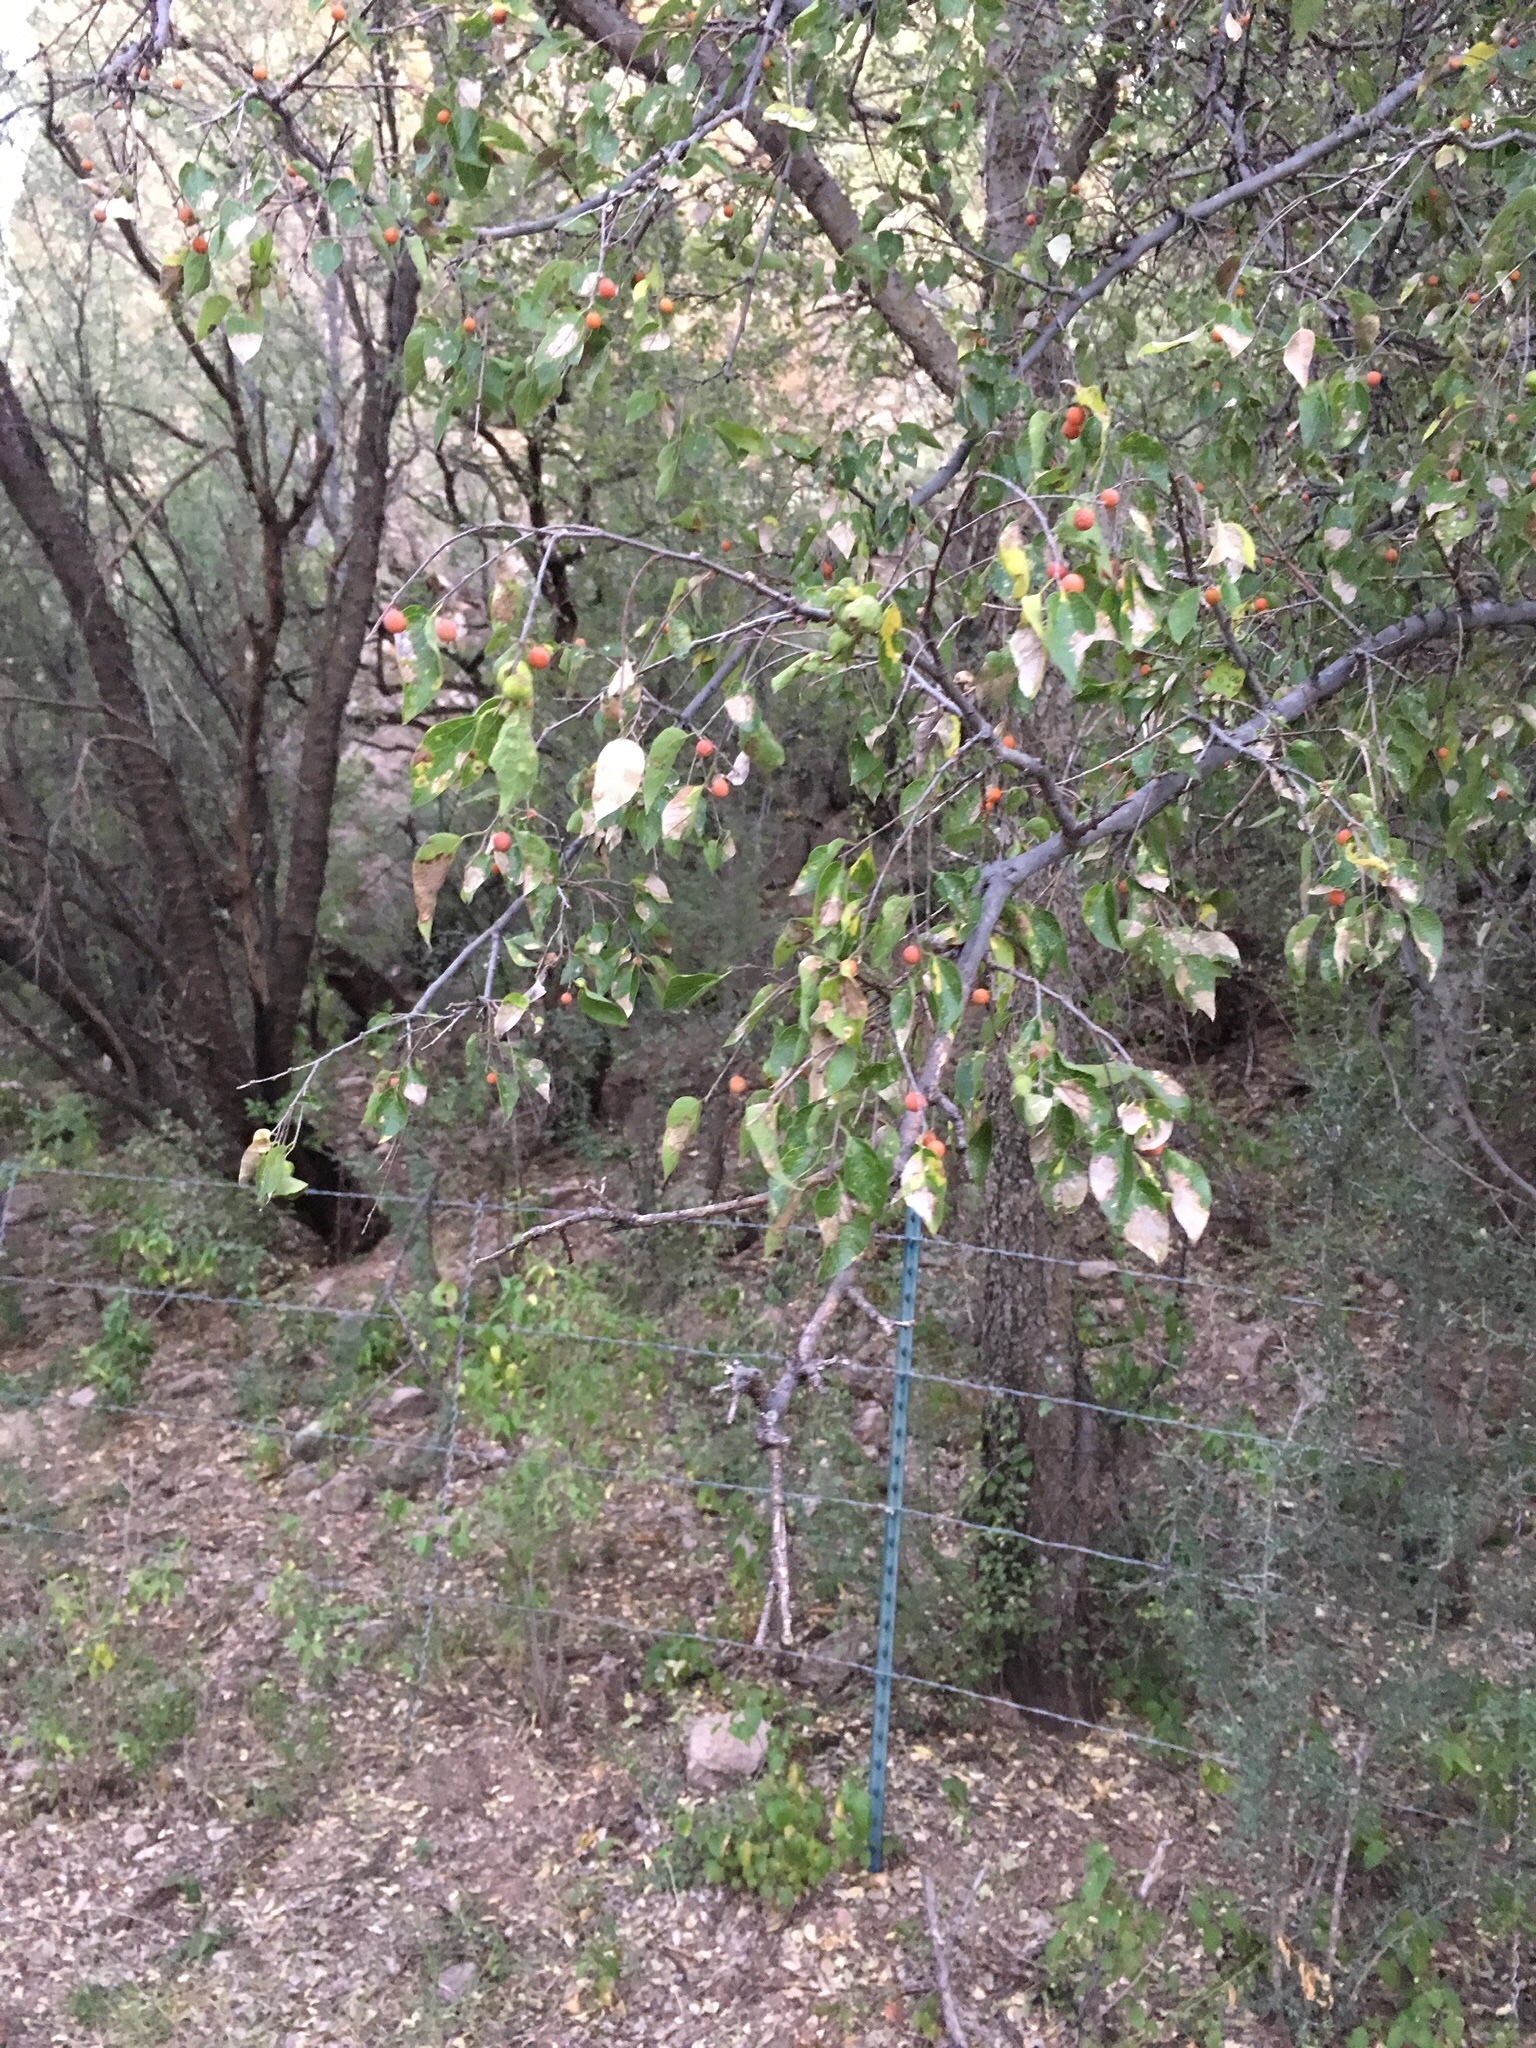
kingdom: Plantae
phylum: Tracheophyta
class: Magnoliopsida
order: Rosales
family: Cannabaceae
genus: Celtis
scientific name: Celtis reticulata
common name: Netleaf hackberry
